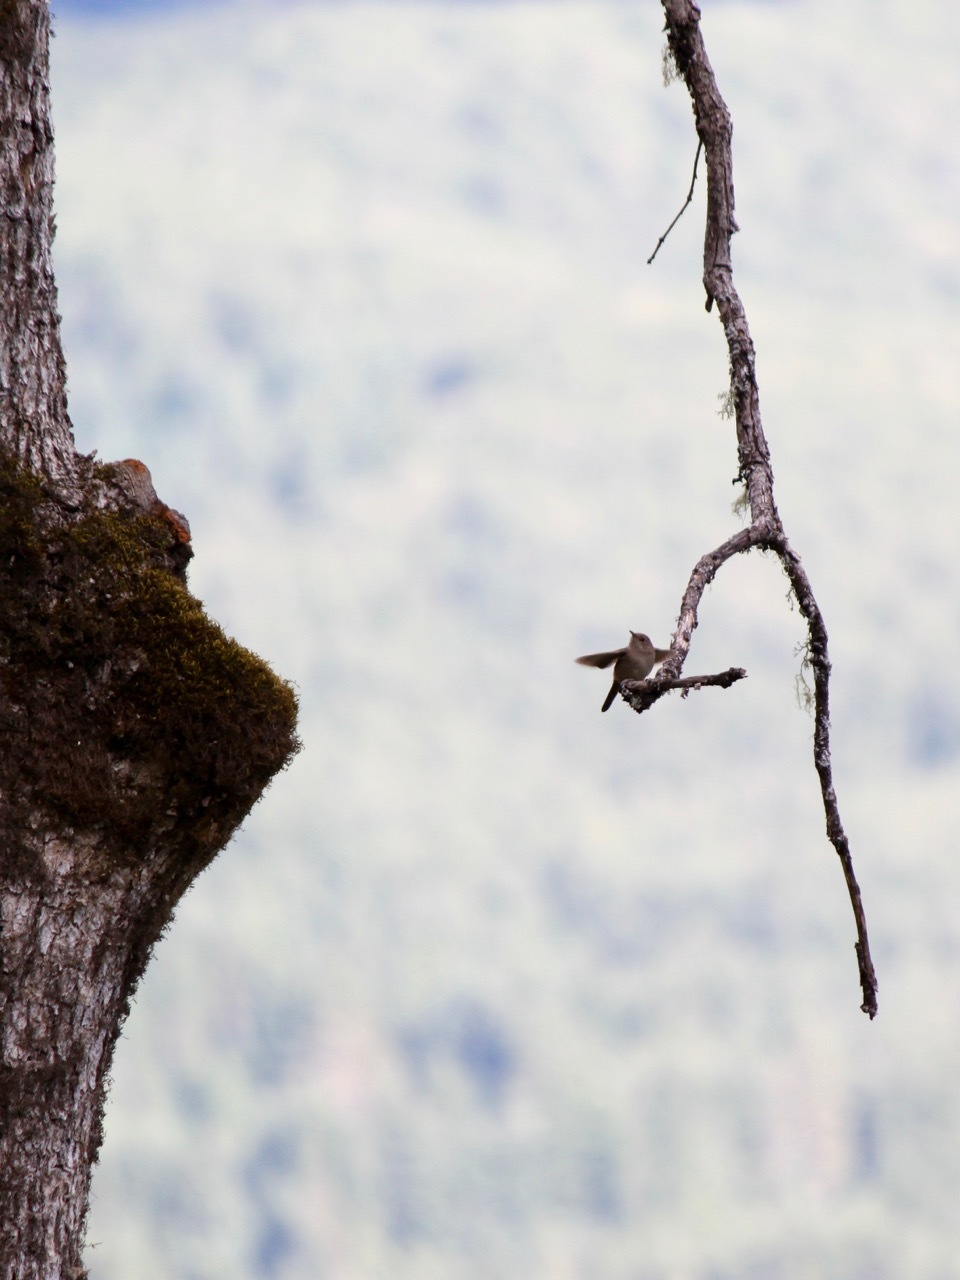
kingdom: Animalia
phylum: Chordata
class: Aves
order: Passeriformes
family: Troglodytidae
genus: Troglodytes
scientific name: Troglodytes aedon
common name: House wren
